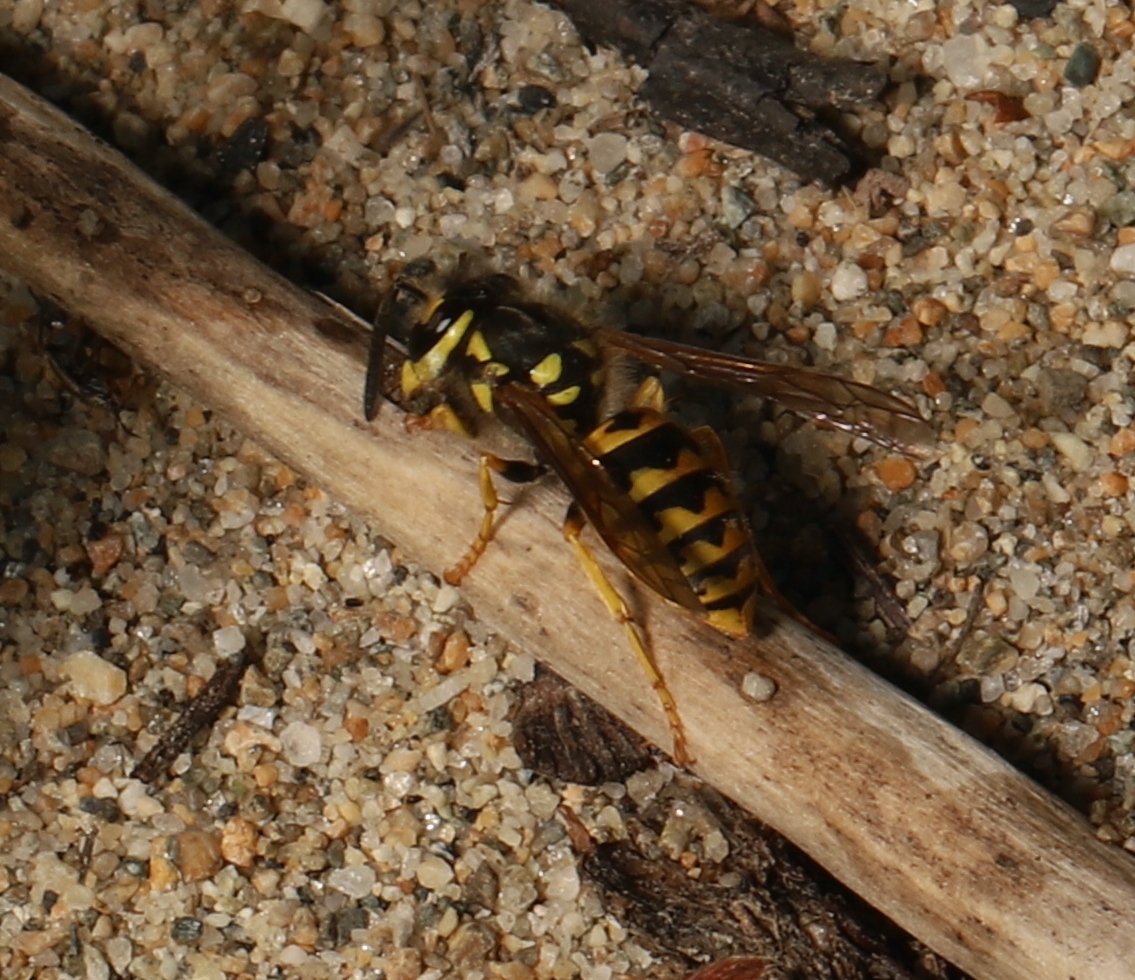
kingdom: Animalia
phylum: Arthropoda
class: Insecta
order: Hymenoptera
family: Vespidae
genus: Vespula
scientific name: Vespula germanica
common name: German wasp
